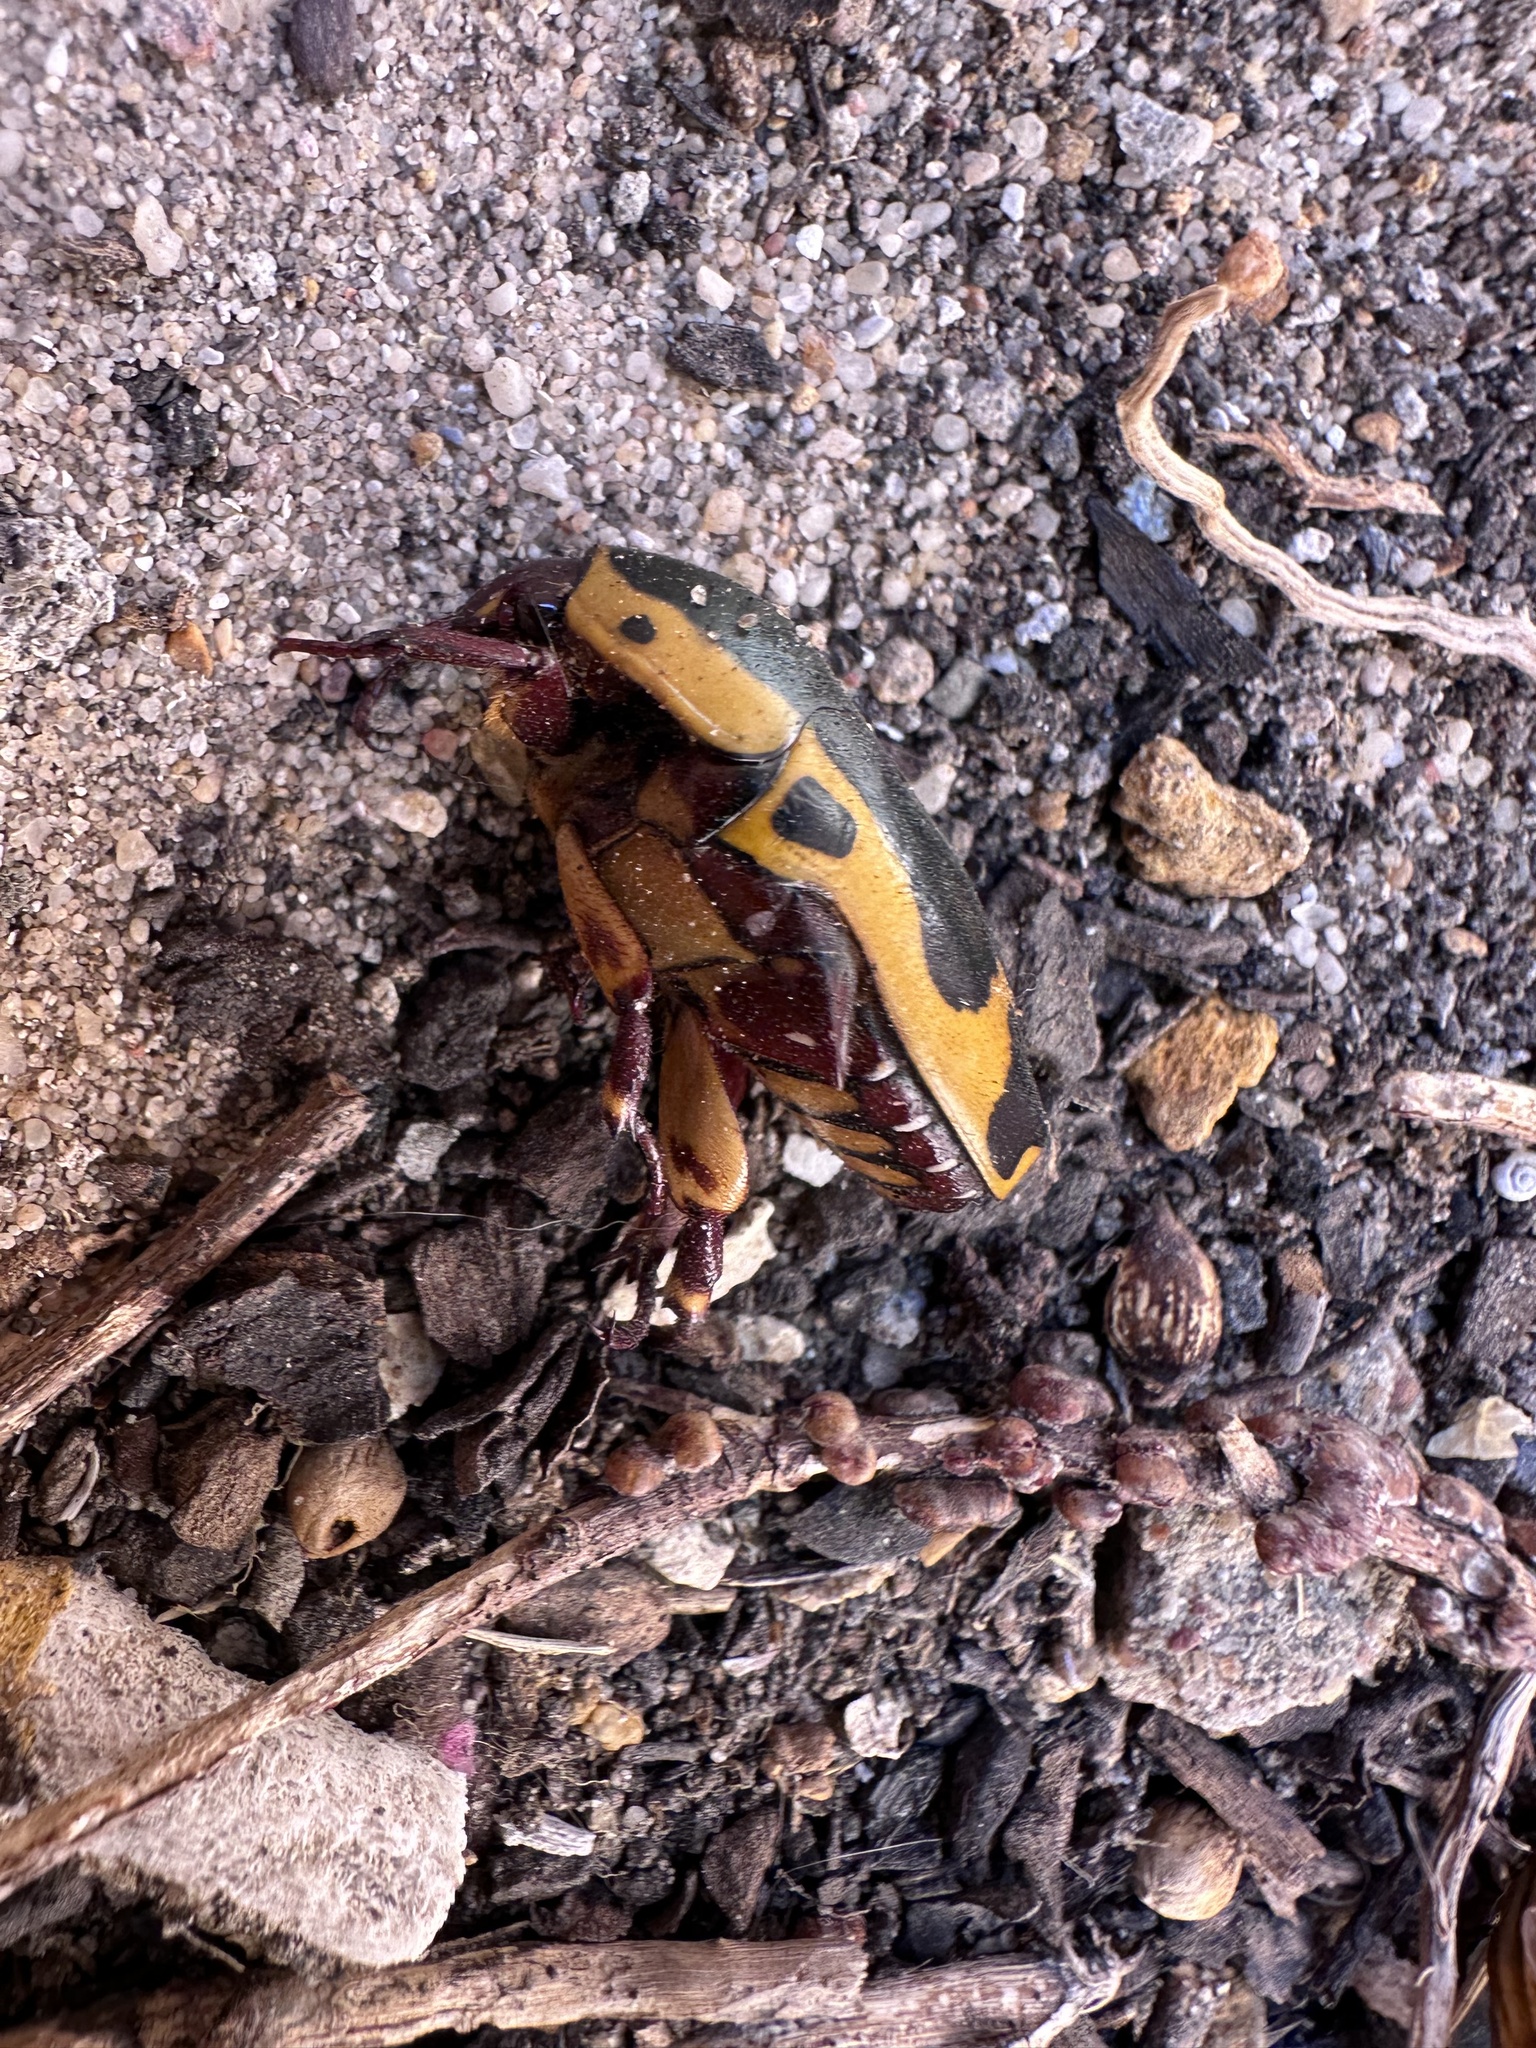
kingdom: Animalia
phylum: Arthropoda
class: Insecta
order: Coleoptera
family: Scarabaeidae
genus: Pachnoda
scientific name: Pachnoda sinuata
